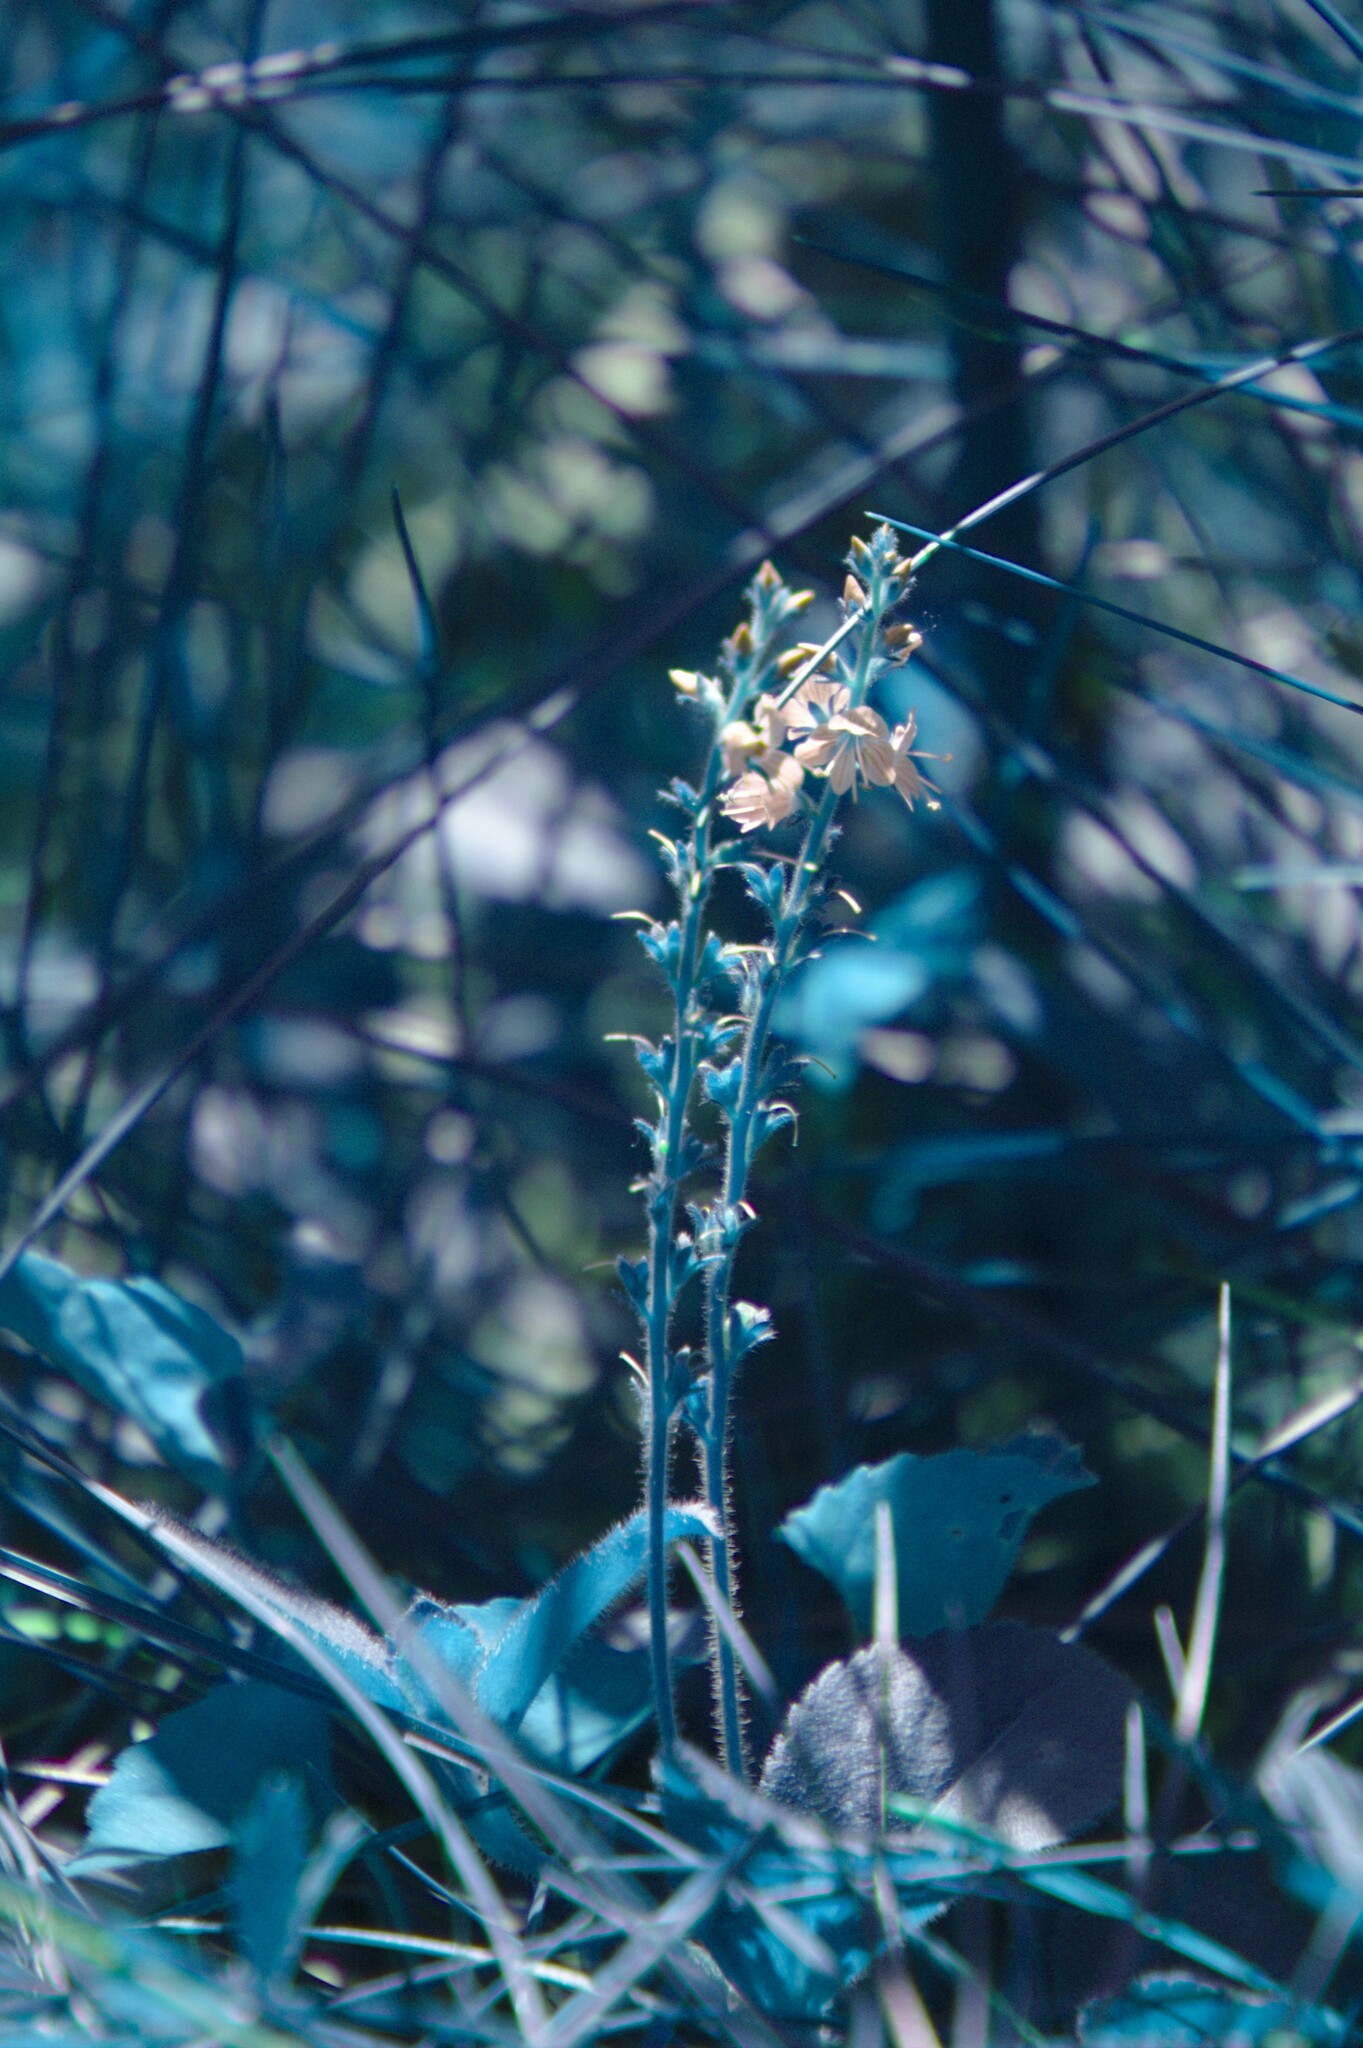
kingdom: Plantae
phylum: Tracheophyta
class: Magnoliopsida
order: Lamiales
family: Plantaginaceae
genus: Veronica
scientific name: Veronica officinalis
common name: Common speedwell
